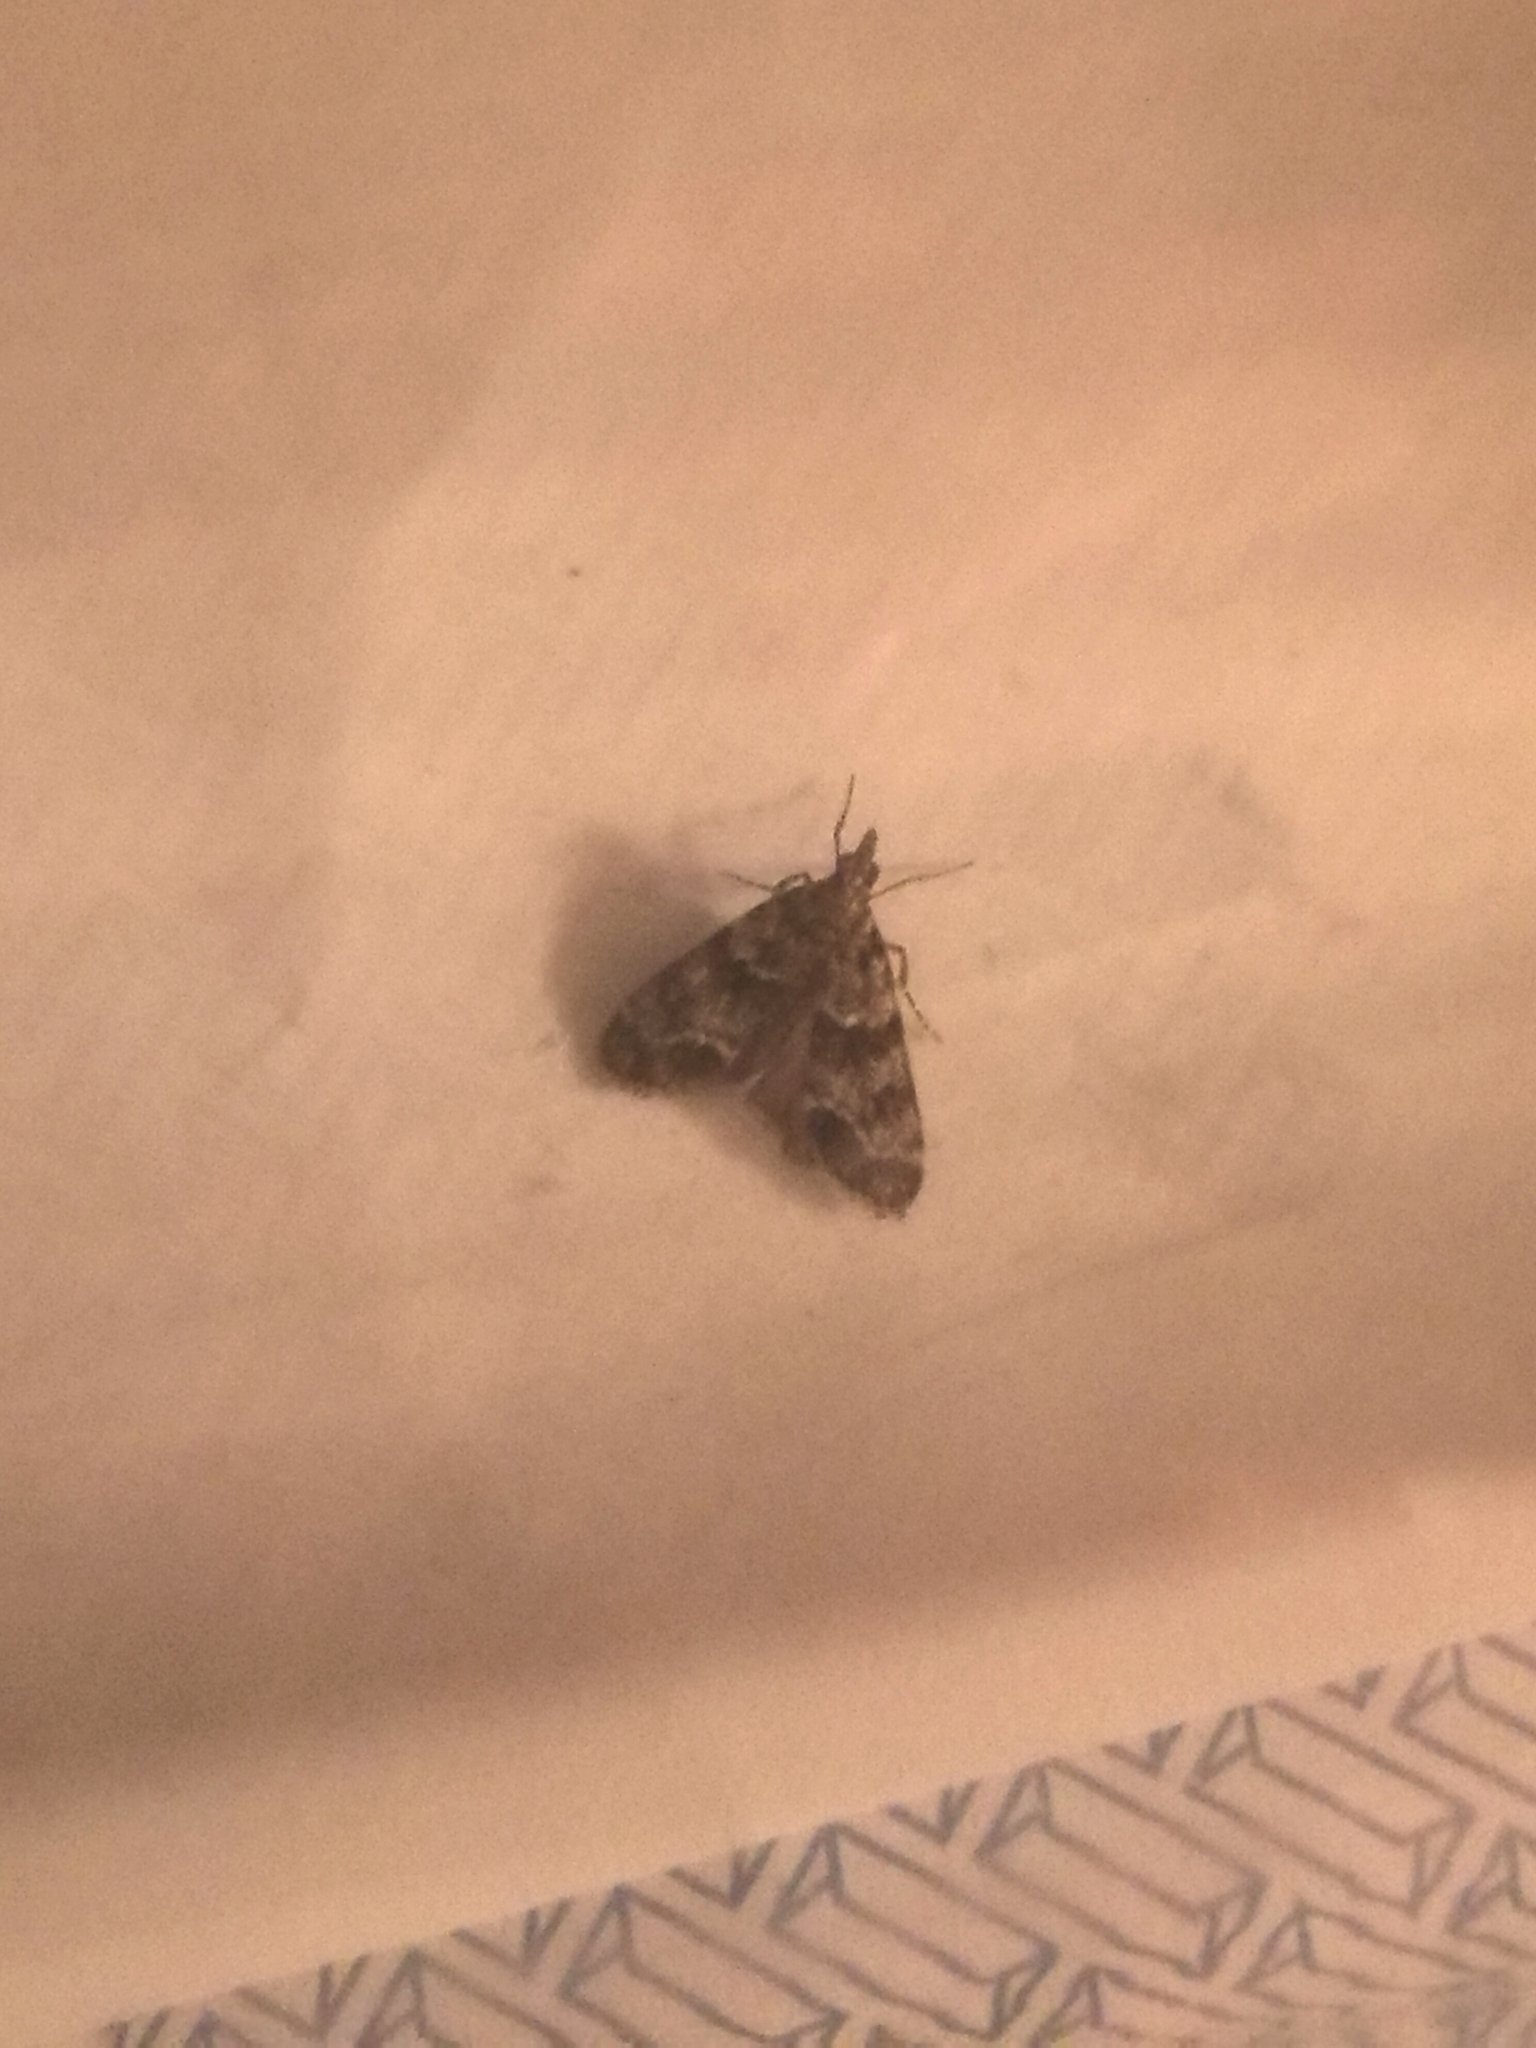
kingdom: Animalia
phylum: Arthropoda
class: Insecta
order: Lepidoptera
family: Crambidae
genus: Eudonia
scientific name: Eudonia mercurella
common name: Small grey
